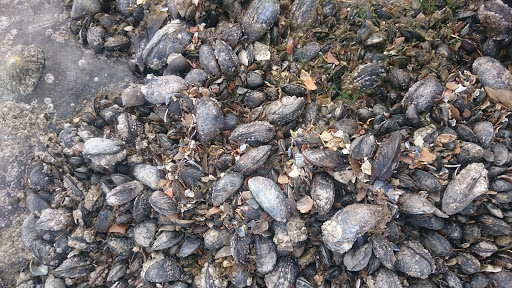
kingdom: Animalia
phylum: Mollusca
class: Bivalvia
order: Mytilida
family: Mytilidae
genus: Mytilus
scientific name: Mytilus edulis
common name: Blue mussel
